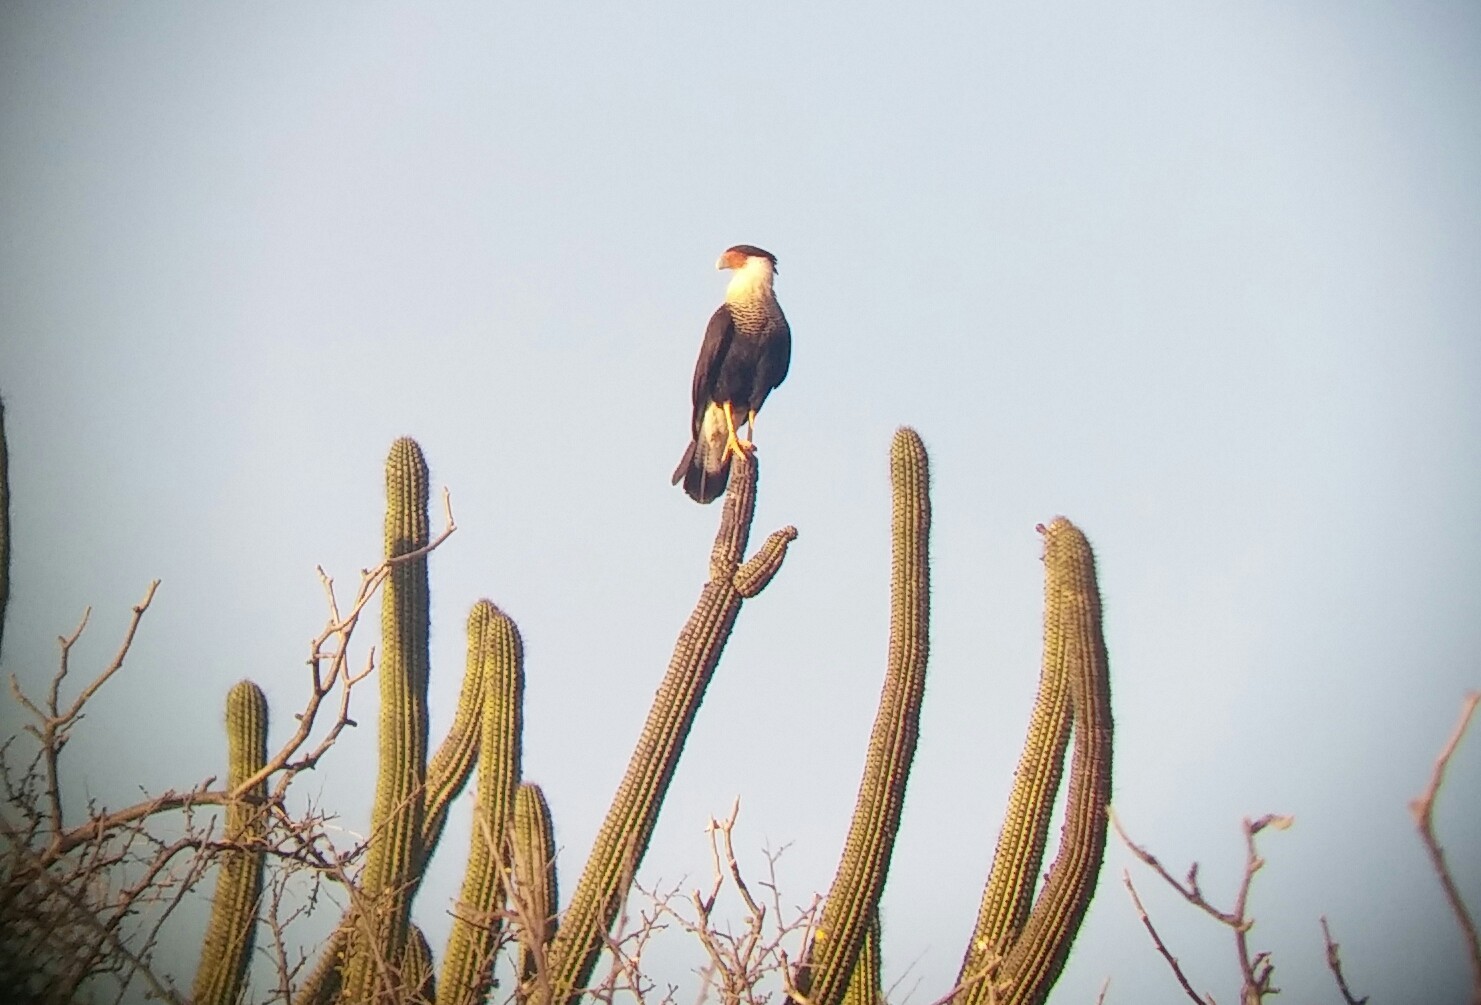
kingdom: Animalia
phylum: Chordata
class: Aves
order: Falconiformes
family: Falconidae
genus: Caracara
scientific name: Caracara plancus
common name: Southern caracara
